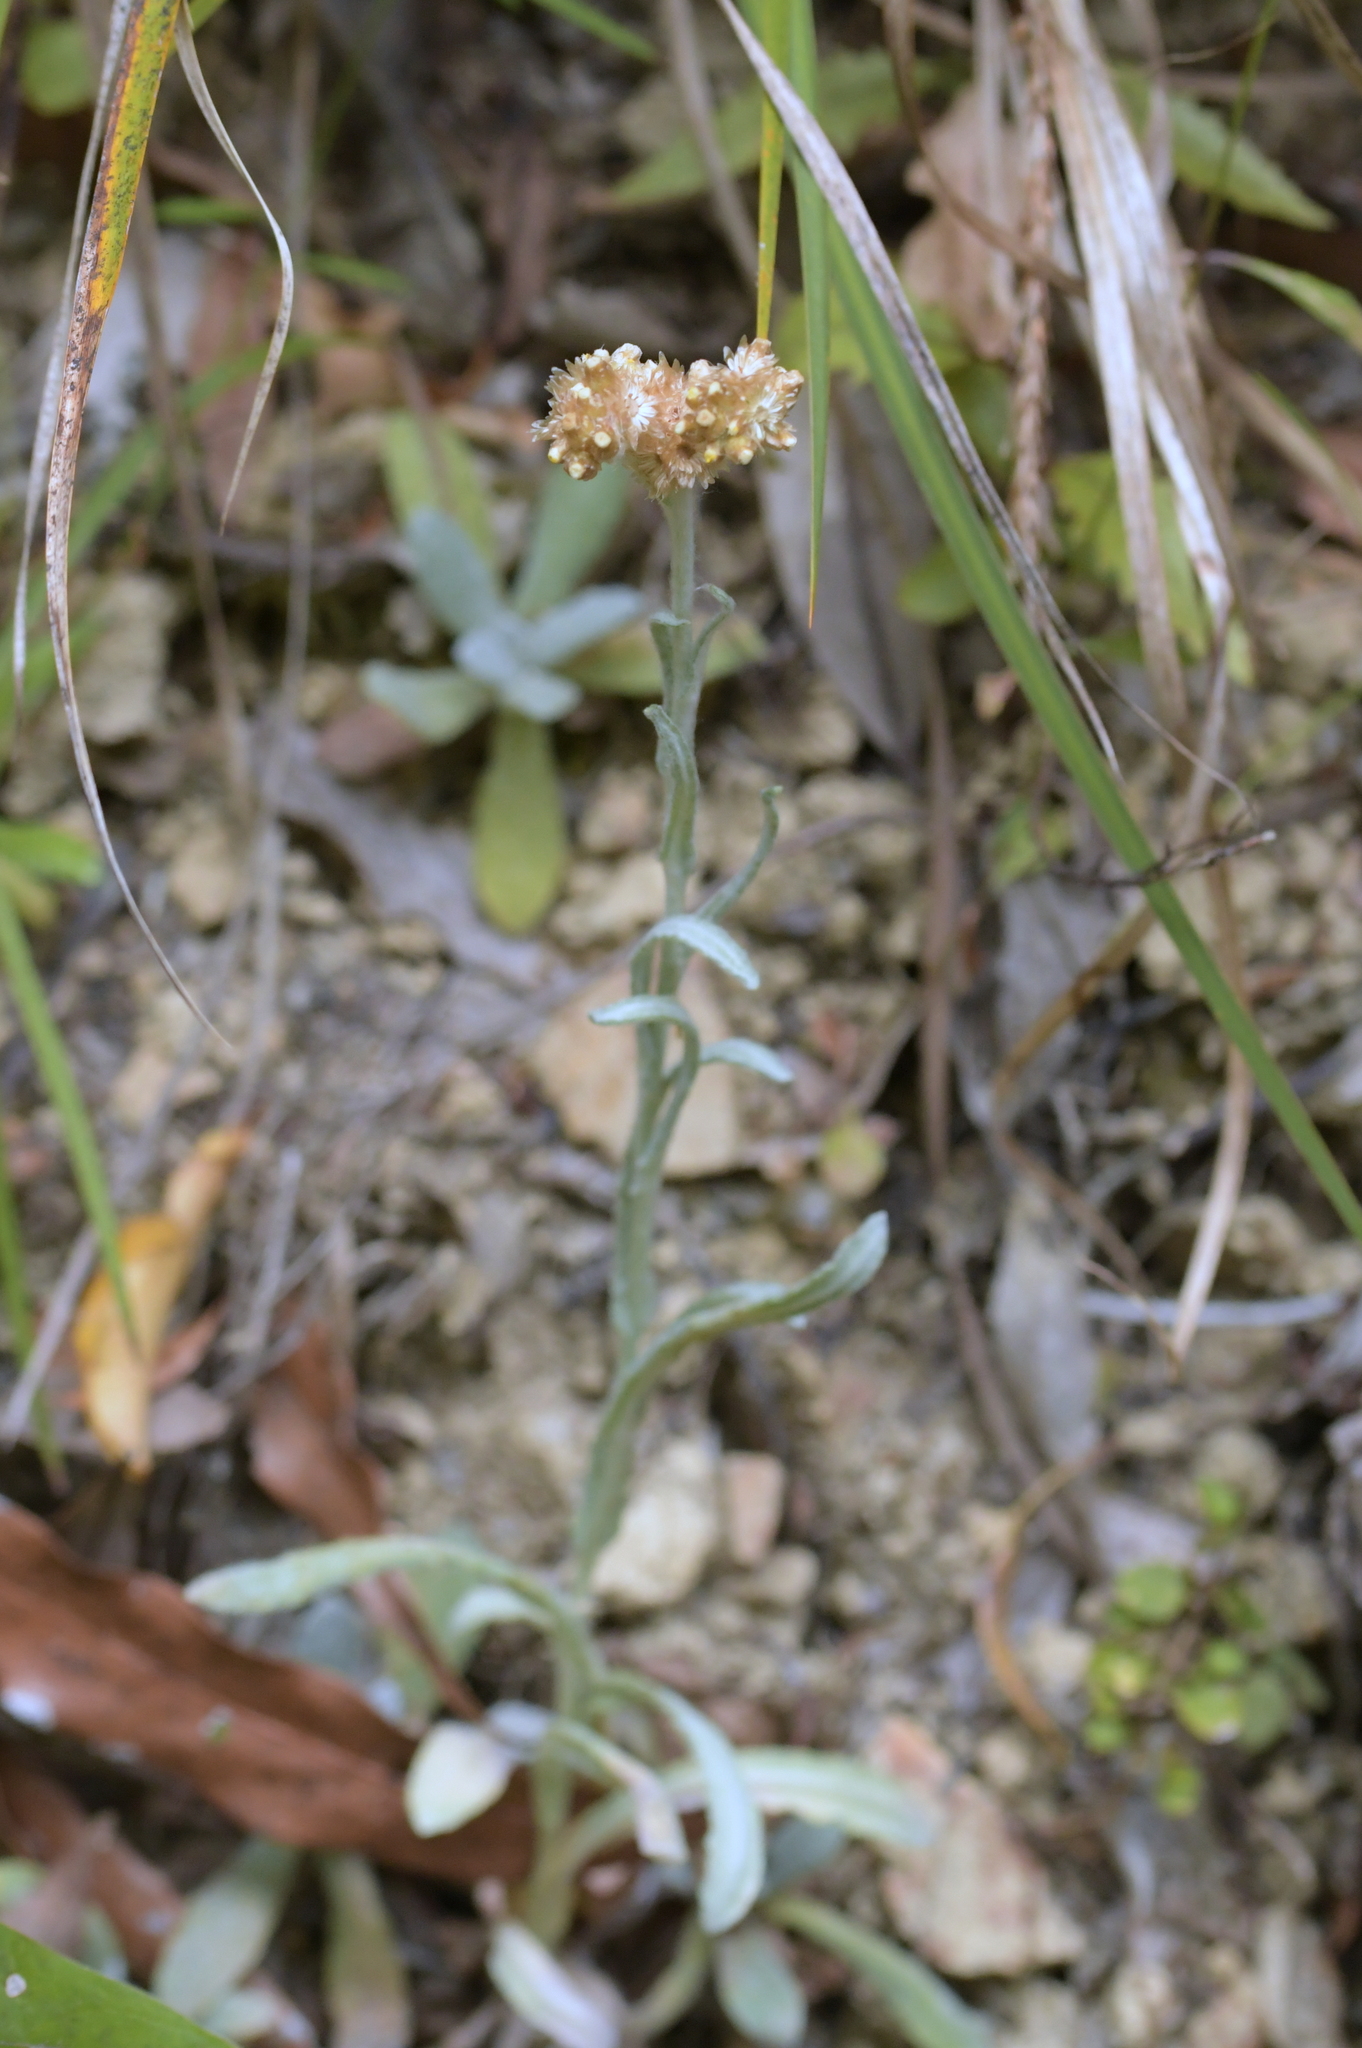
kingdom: Plantae
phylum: Tracheophyta
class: Magnoliopsida
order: Asterales
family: Asteraceae
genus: Helichrysum
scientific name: Helichrysum luteoalbum
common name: Daisy
